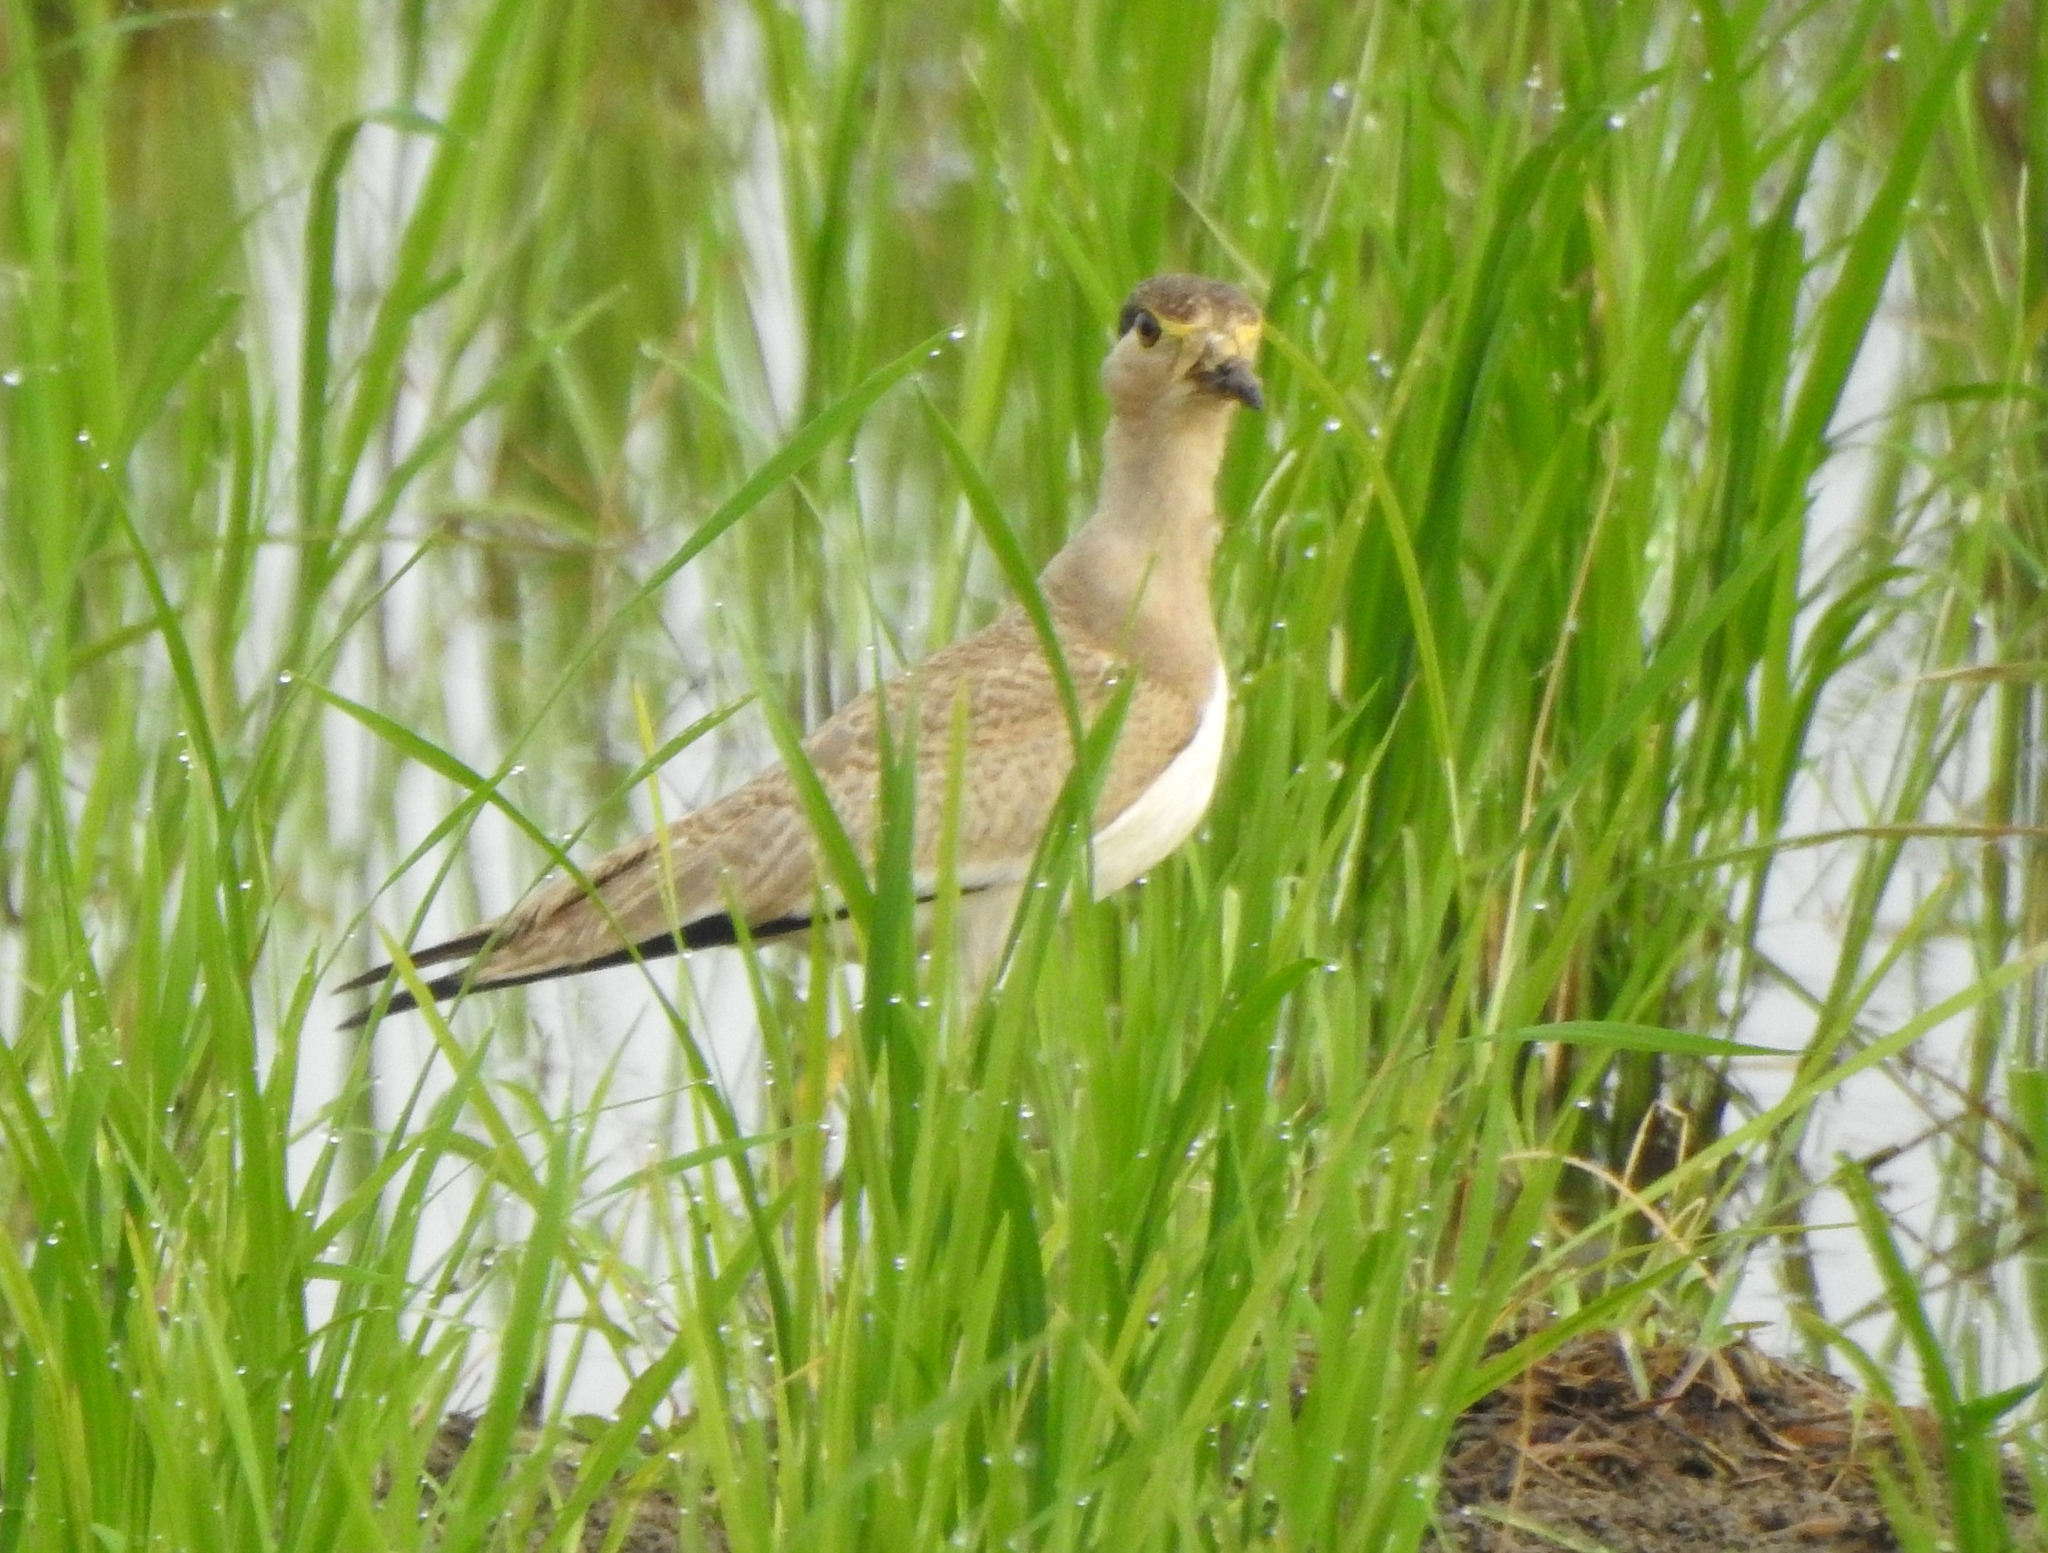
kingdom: Animalia
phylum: Chordata
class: Aves
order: Charadriiformes
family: Charadriidae
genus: Vanellus
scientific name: Vanellus malabaricus
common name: Yellow-wattled lapwing
